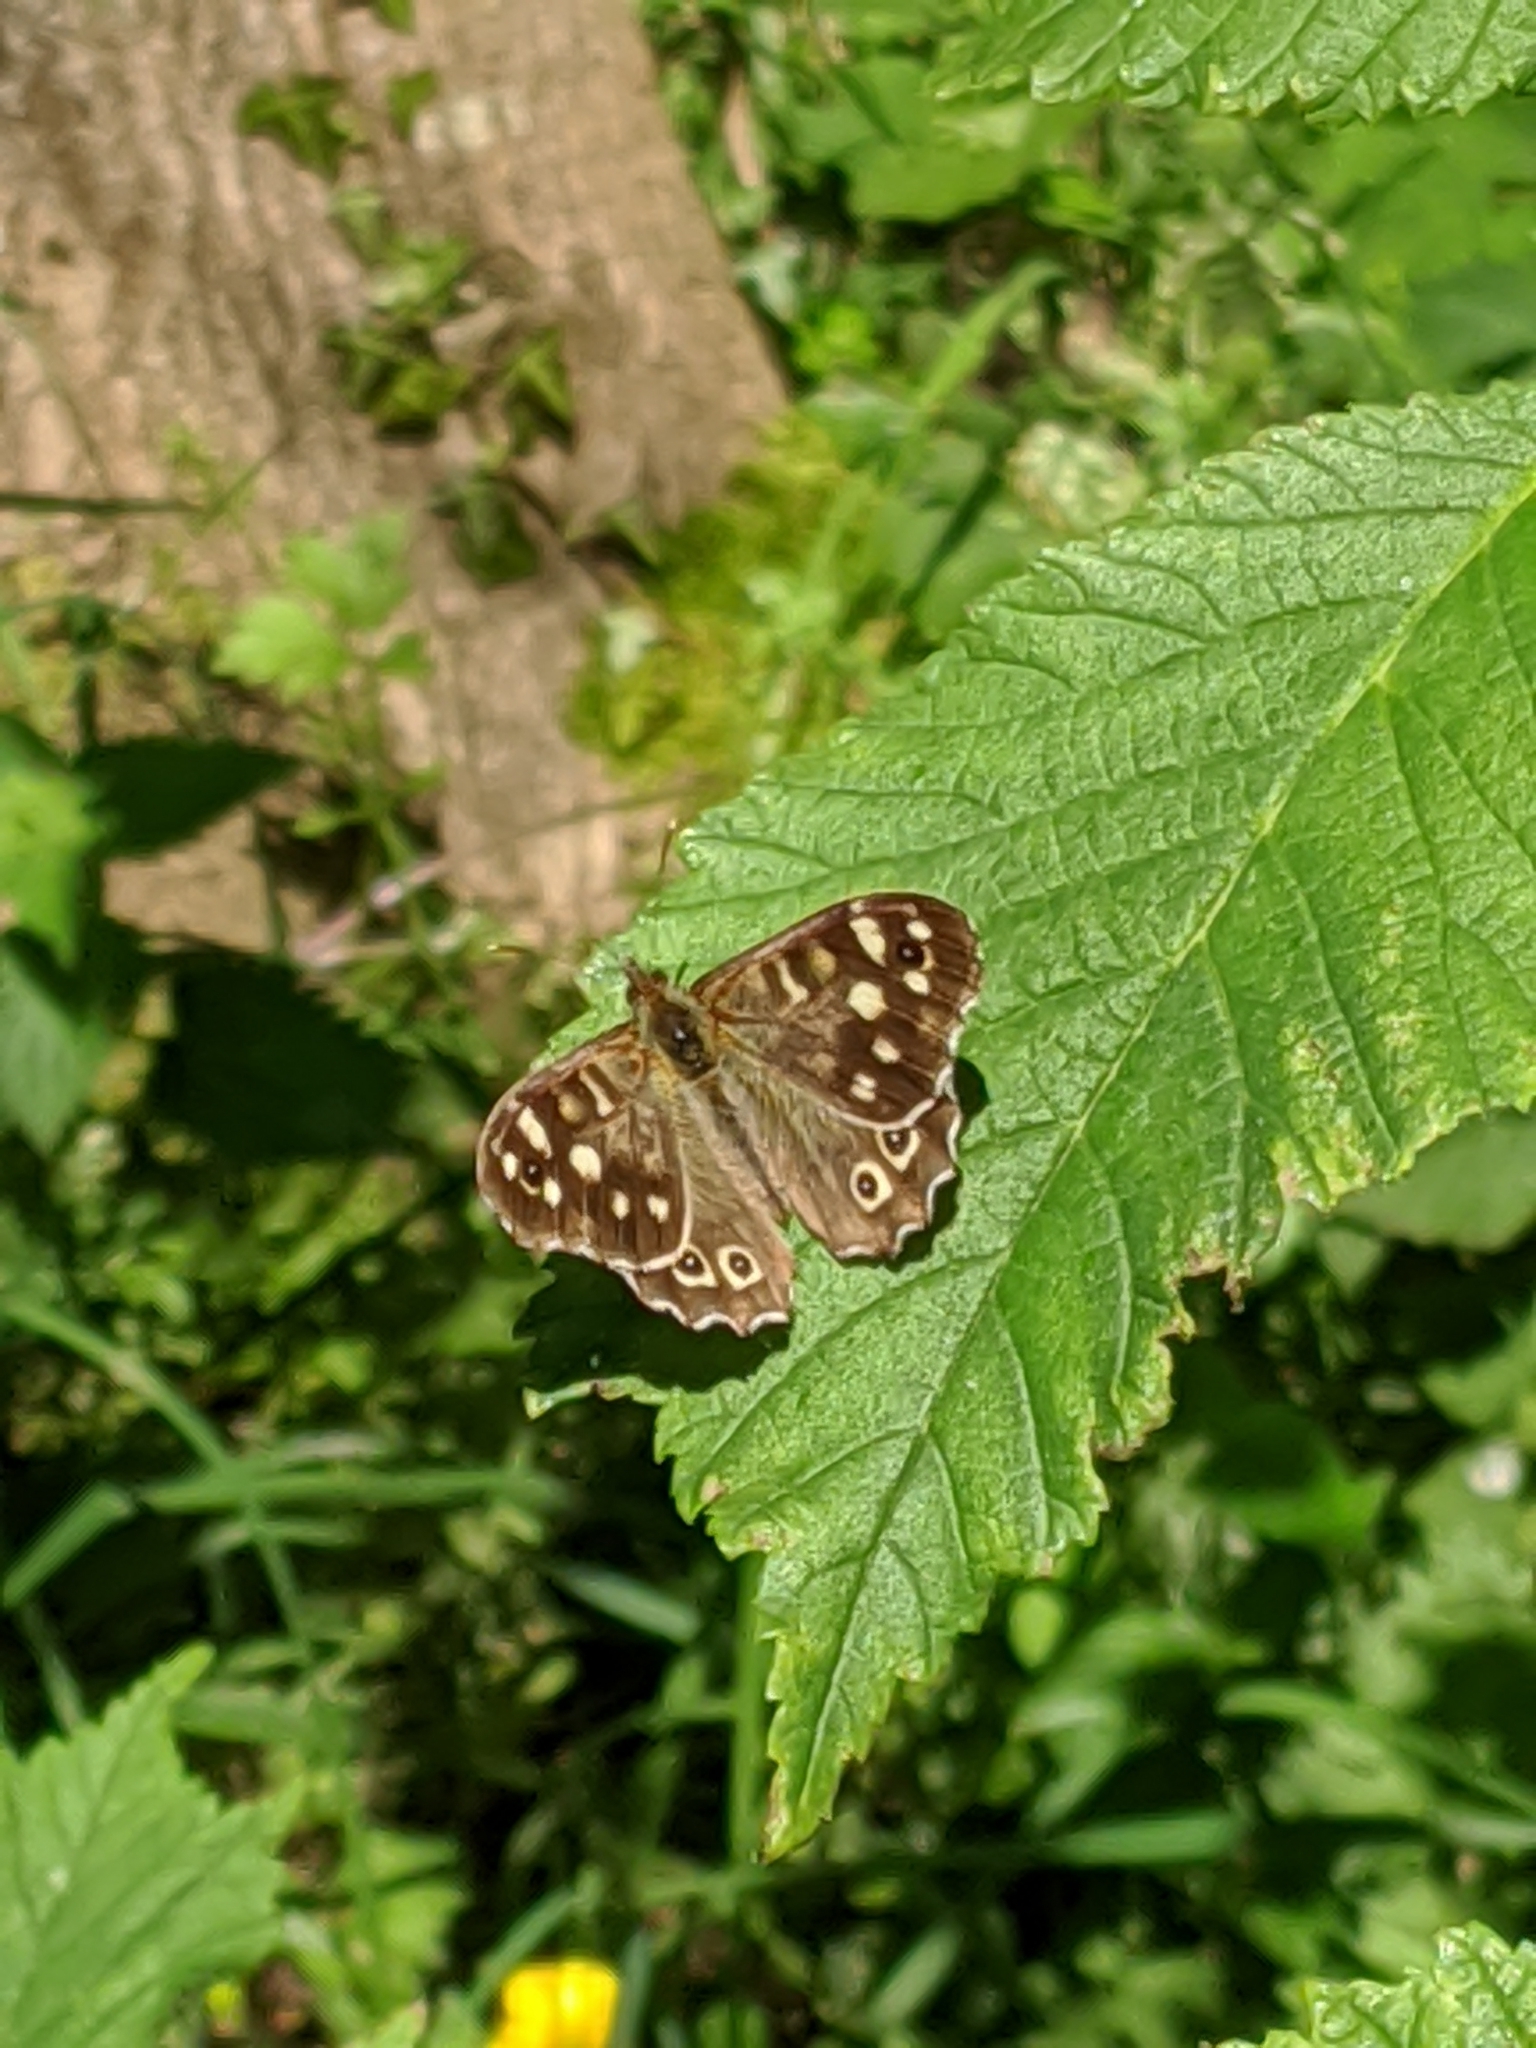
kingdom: Animalia
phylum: Arthropoda
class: Insecta
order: Lepidoptera
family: Nymphalidae
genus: Pararge
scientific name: Pararge aegeria
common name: Speckled wood
